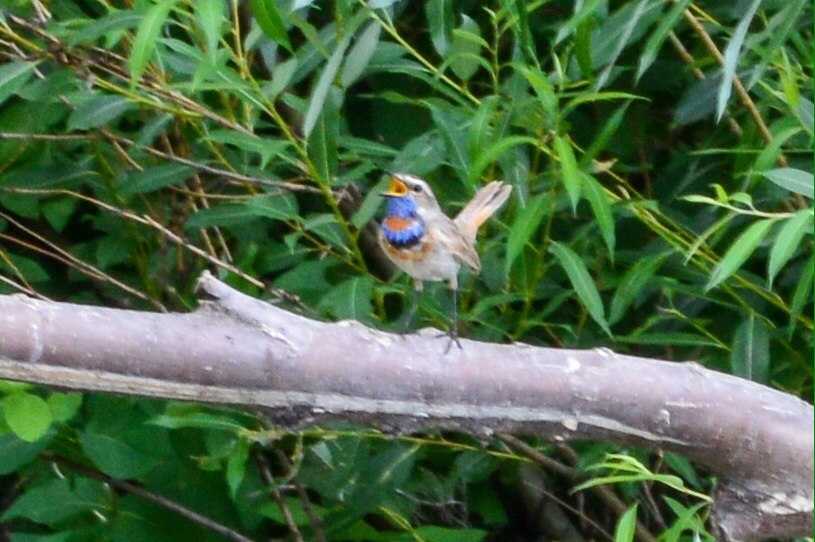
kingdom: Animalia
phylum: Chordata
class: Aves
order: Passeriformes
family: Muscicapidae
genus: Luscinia
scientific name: Luscinia svecica
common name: Bluethroat
